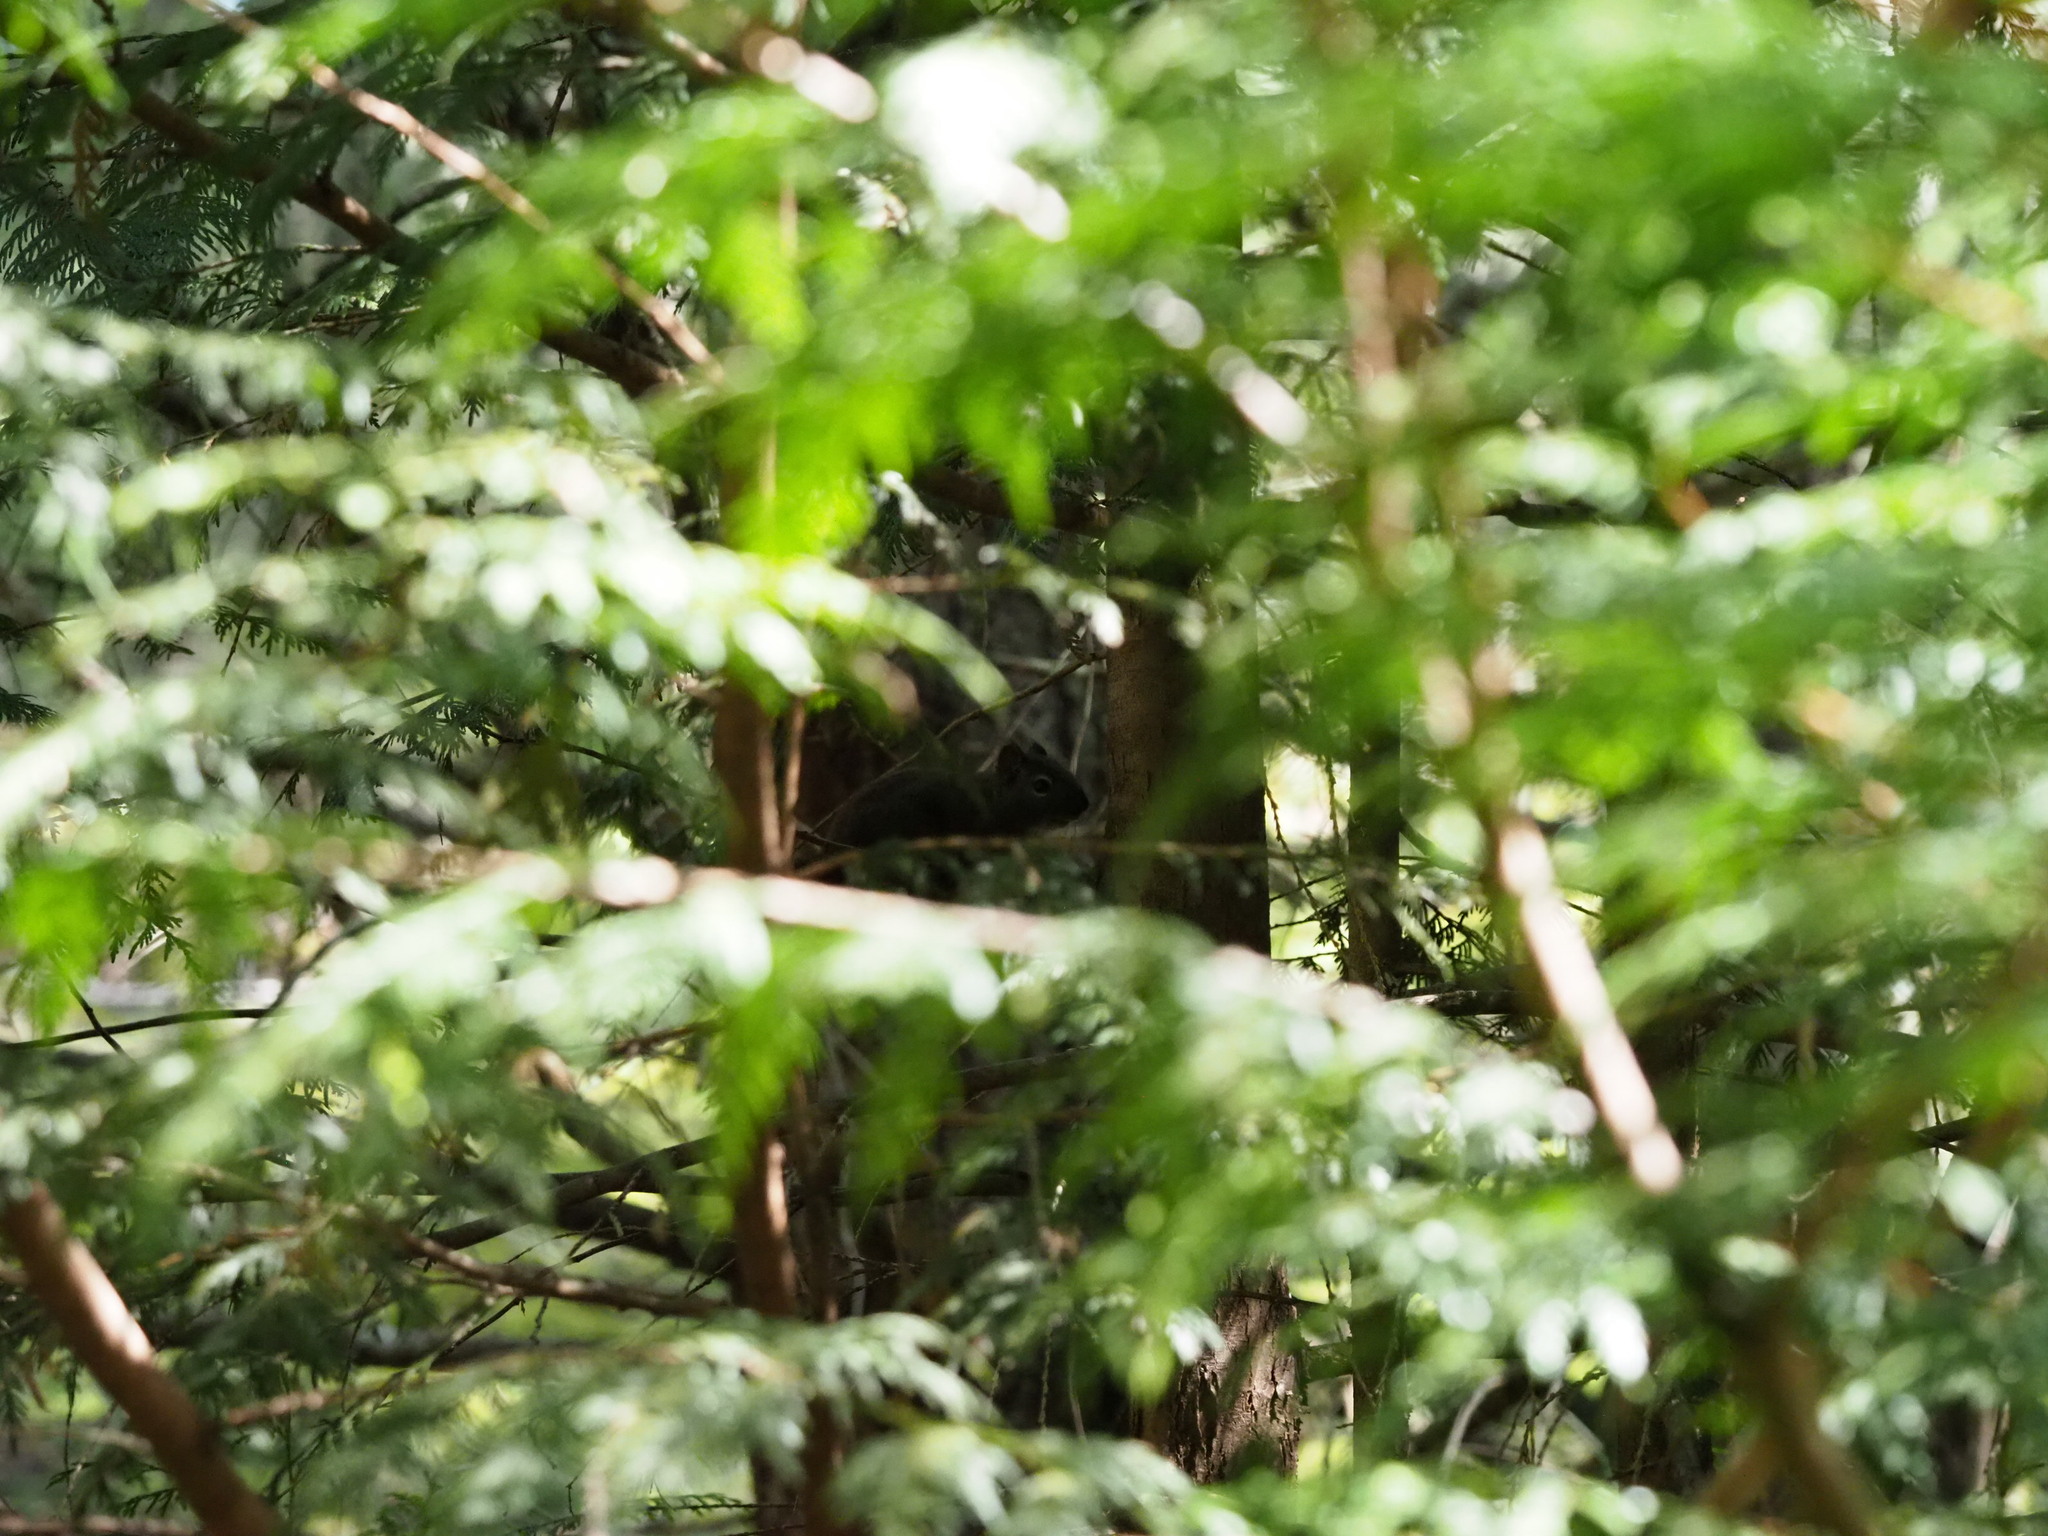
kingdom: Animalia
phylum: Chordata
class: Mammalia
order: Rodentia
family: Sciuridae
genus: Tamiasciurus
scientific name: Tamiasciurus hudsonicus
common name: Red squirrel
